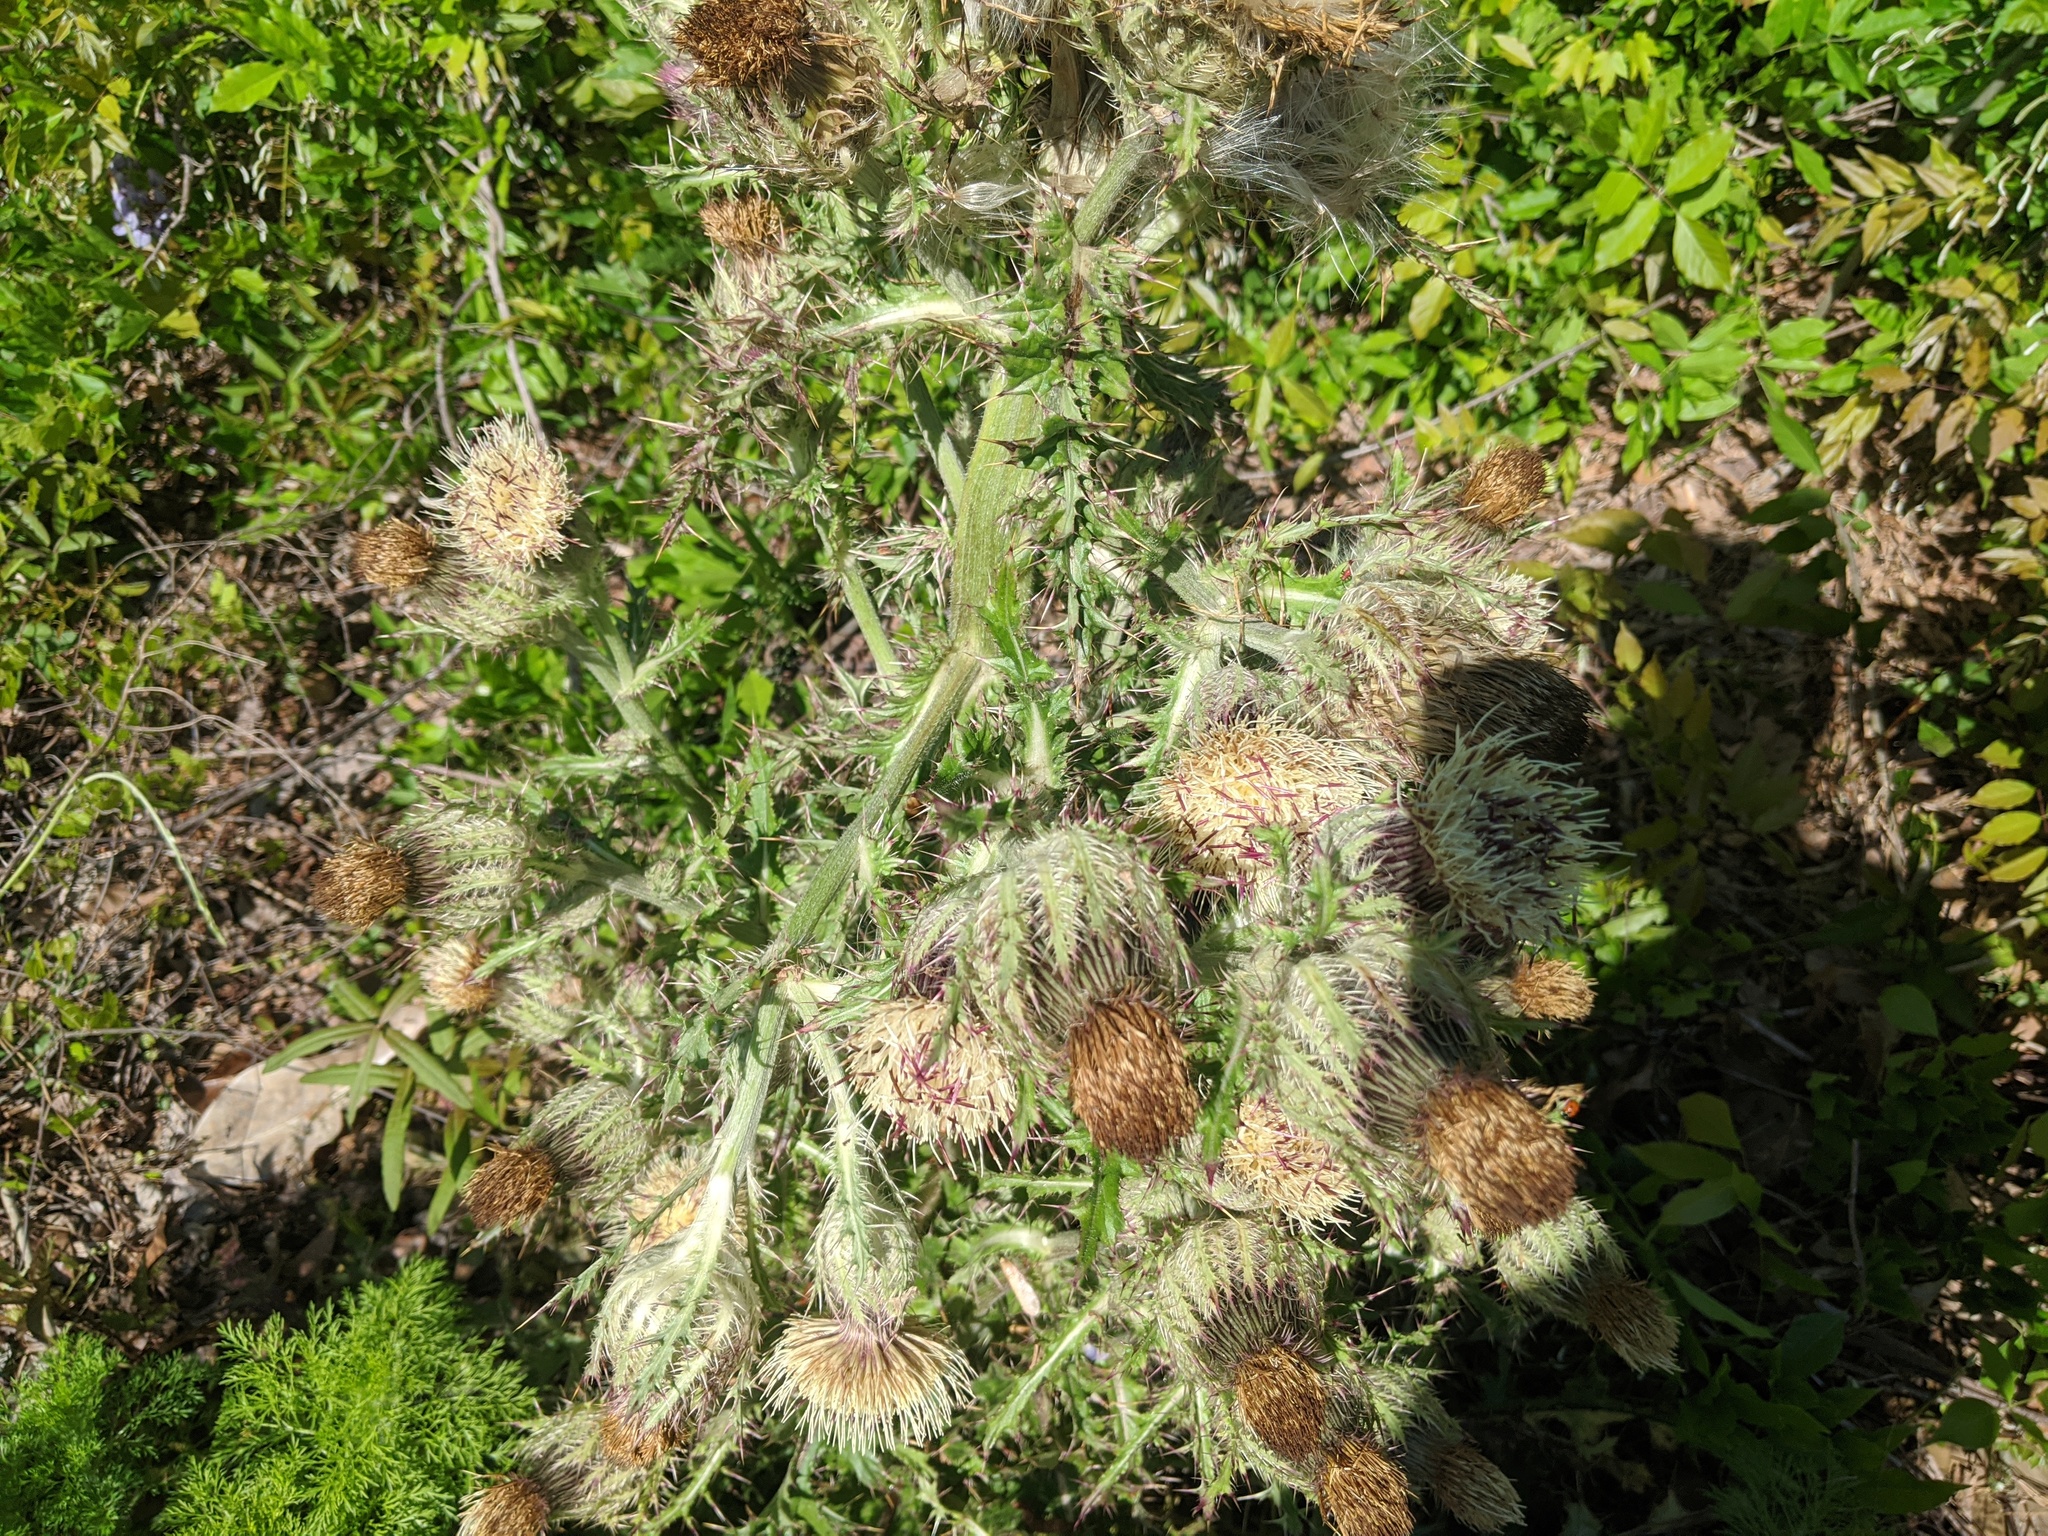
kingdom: Plantae
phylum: Tracheophyta
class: Magnoliopsida
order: Asterales
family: Asteraceae
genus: Cirsium
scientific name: Cirsium horridulum
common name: Bristly thistle
